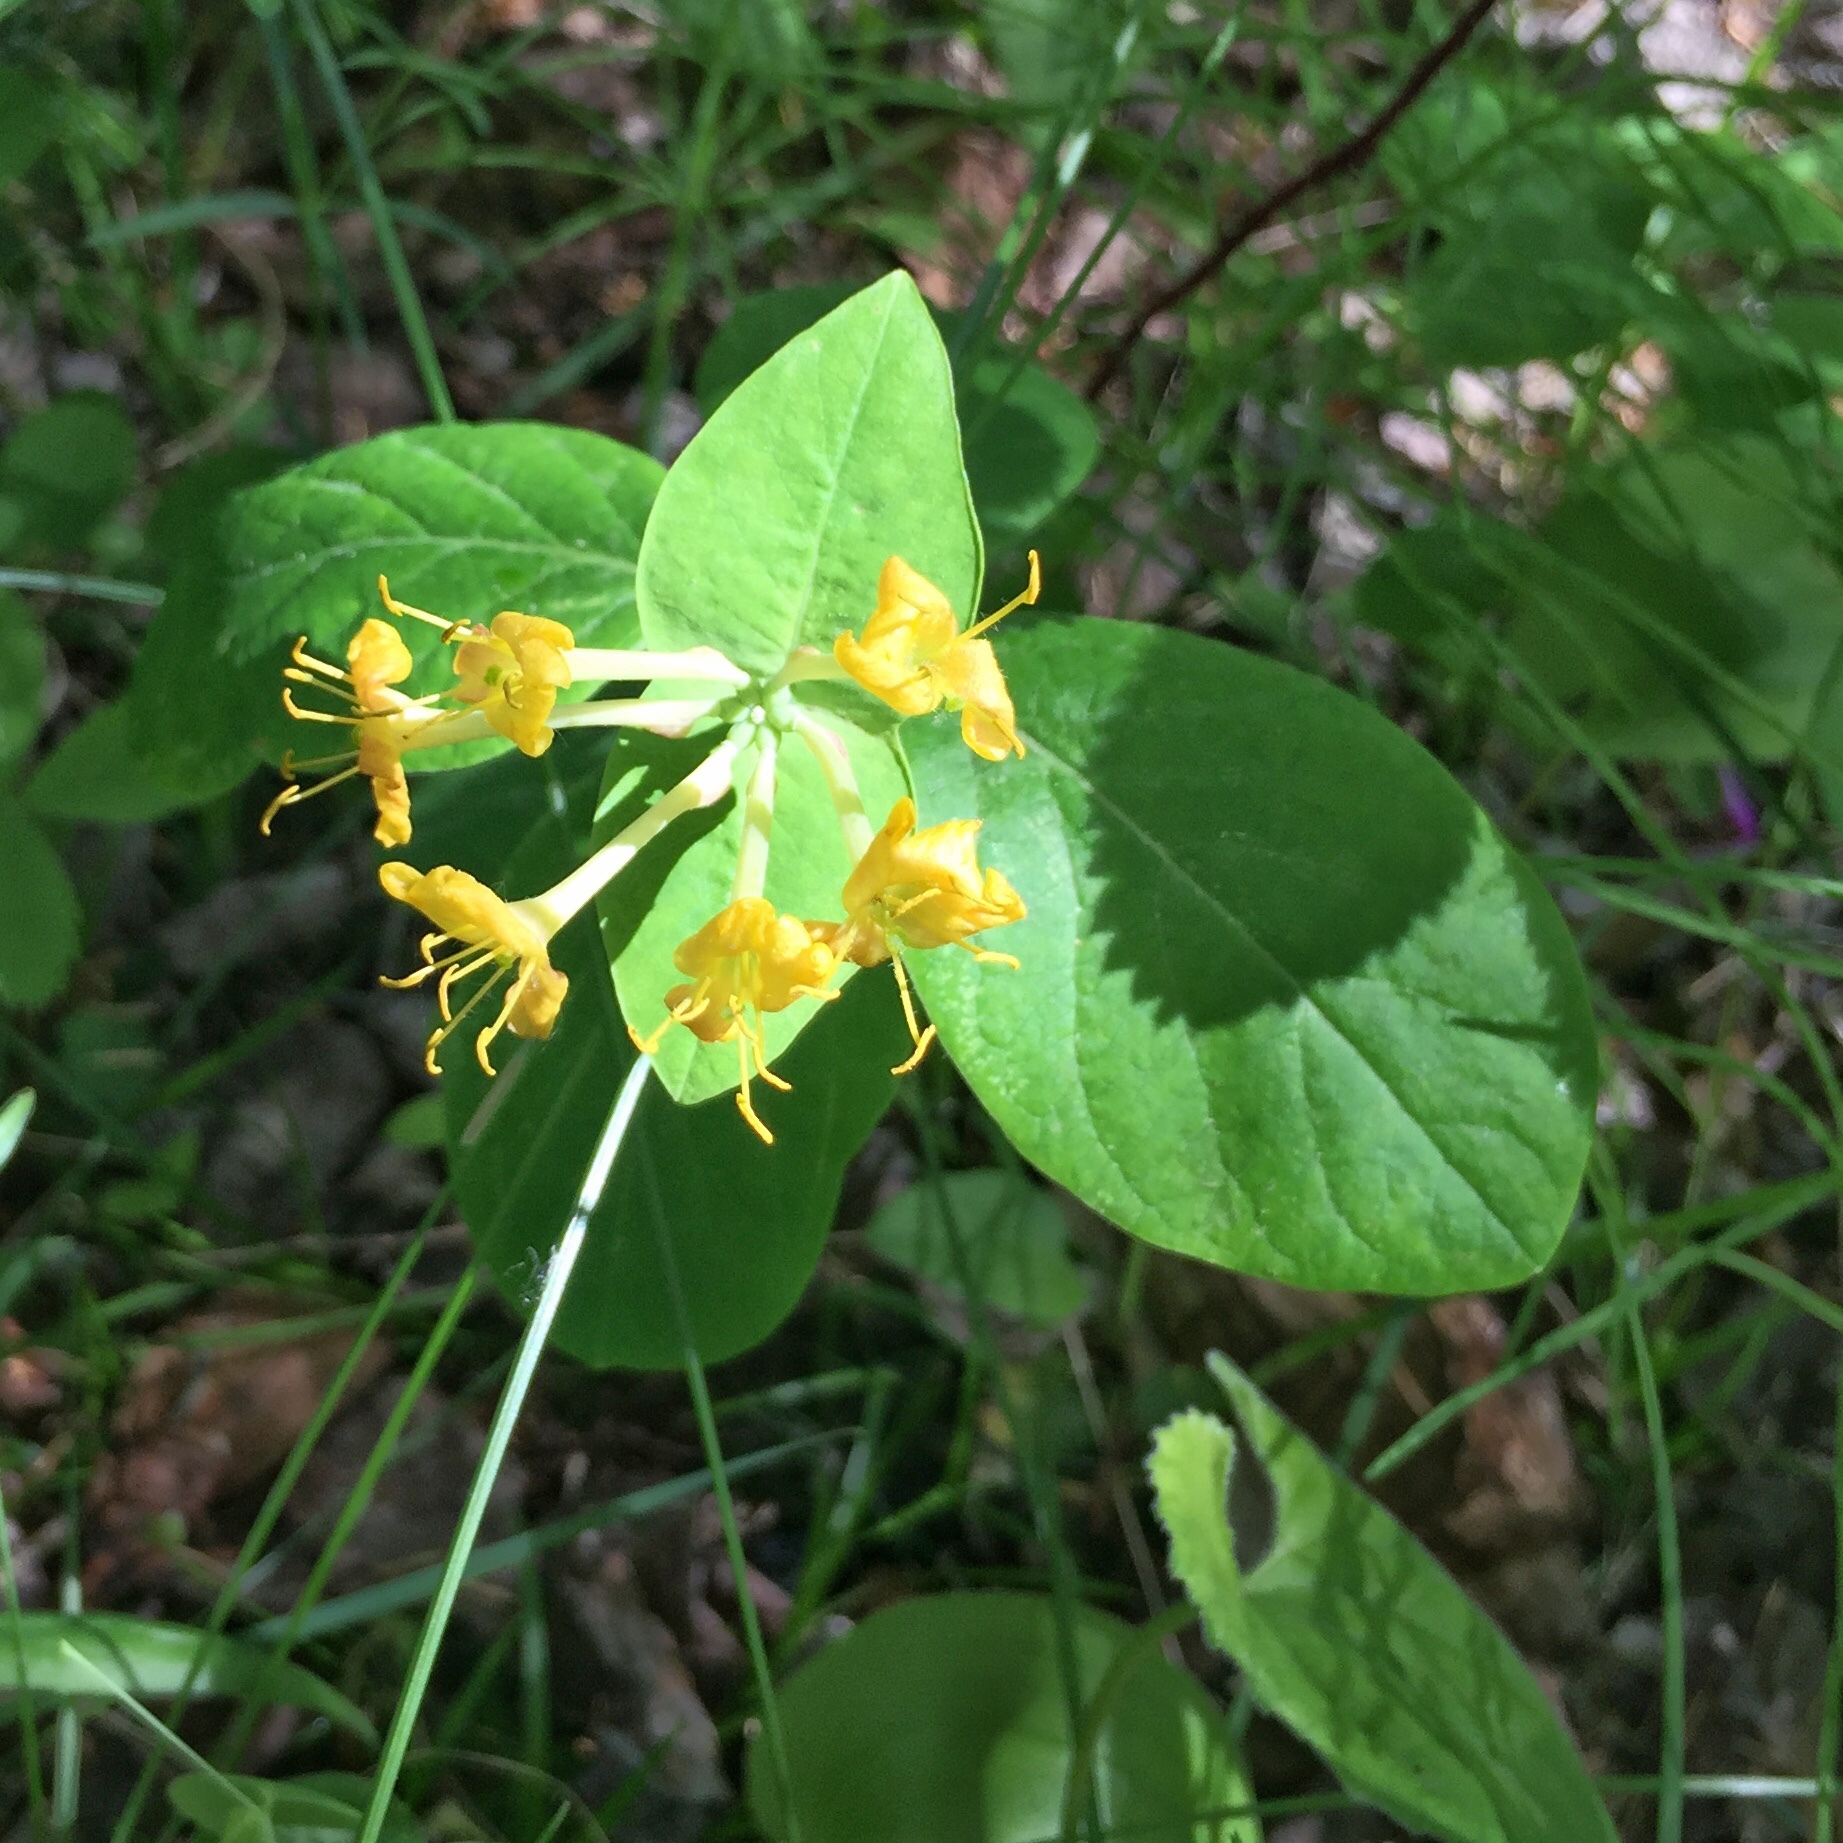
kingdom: Plantae
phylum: Tracheophyta
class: Magnoliopsida
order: Dipsacales
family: Caprifoliaceae
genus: Lonicera
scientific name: Lonicera dioica
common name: Limber honeysuckle
